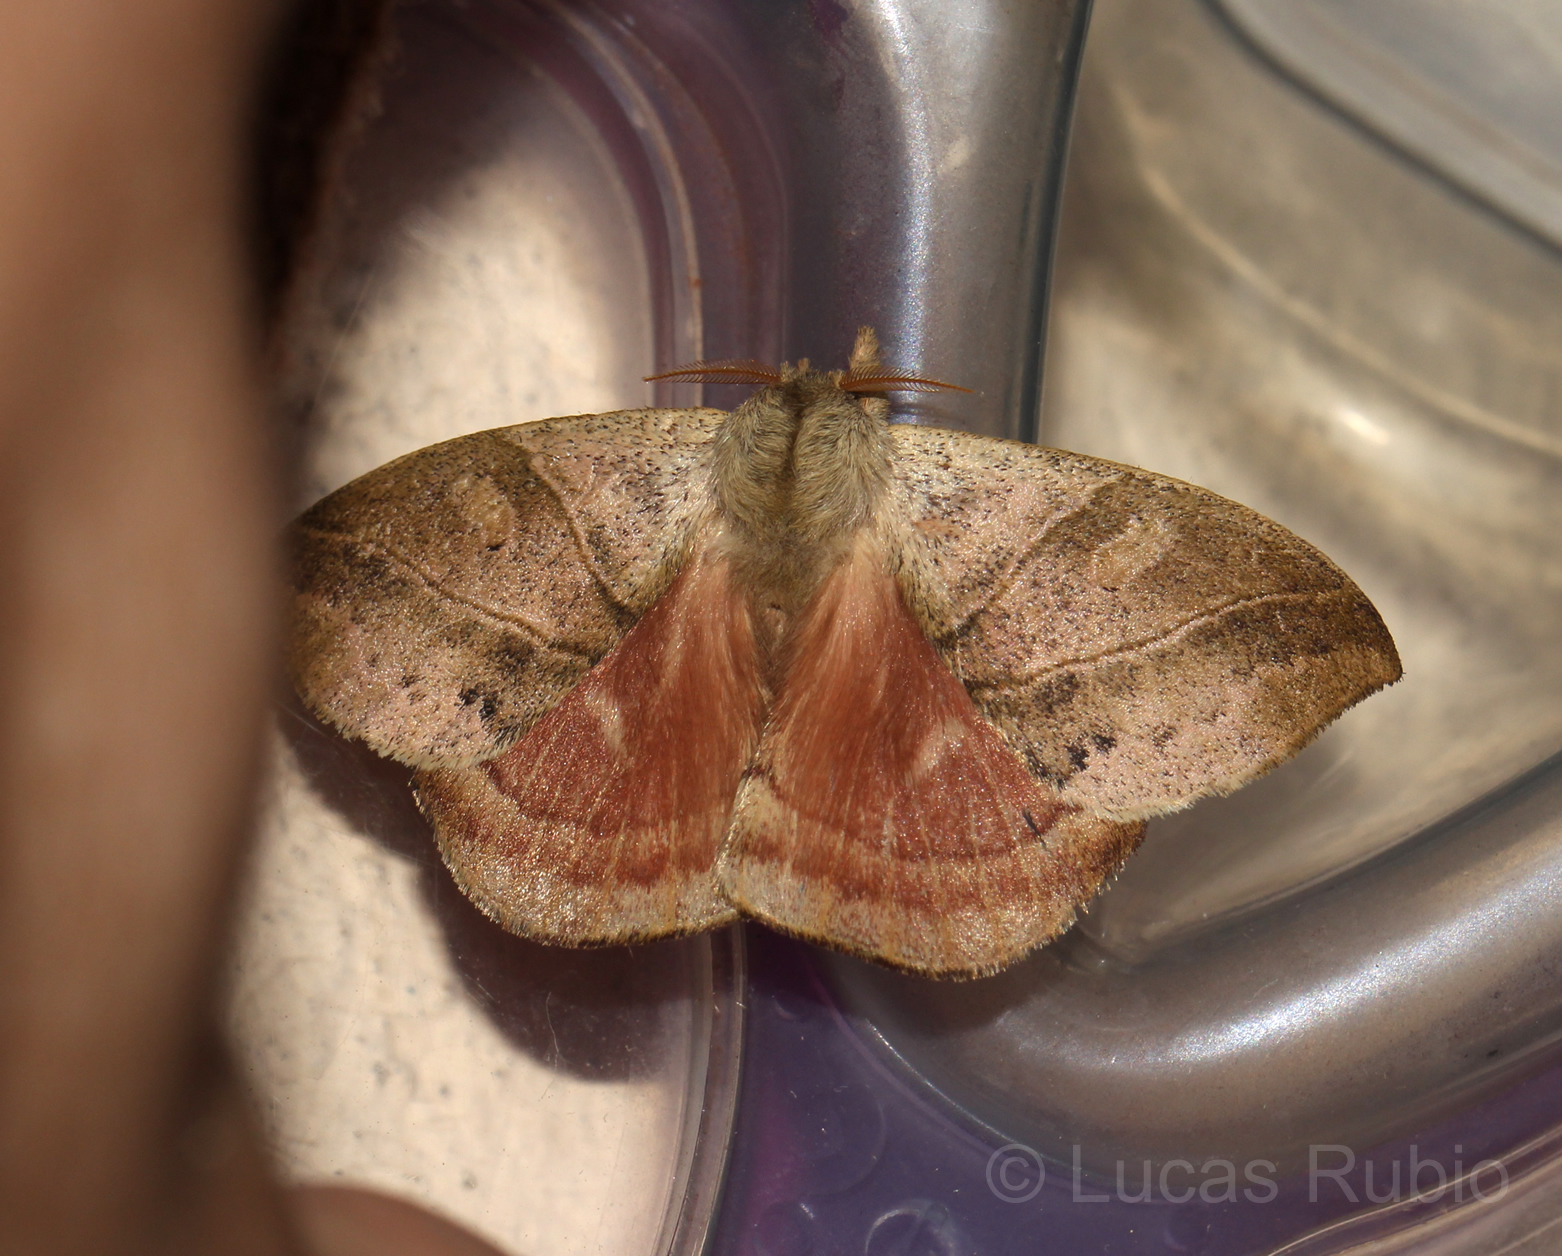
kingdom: Animalia
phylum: Arthropoda
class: Insecta
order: Lepidoptera
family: Saturniidae
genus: Prohylesia
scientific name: Prohylesia zikani
